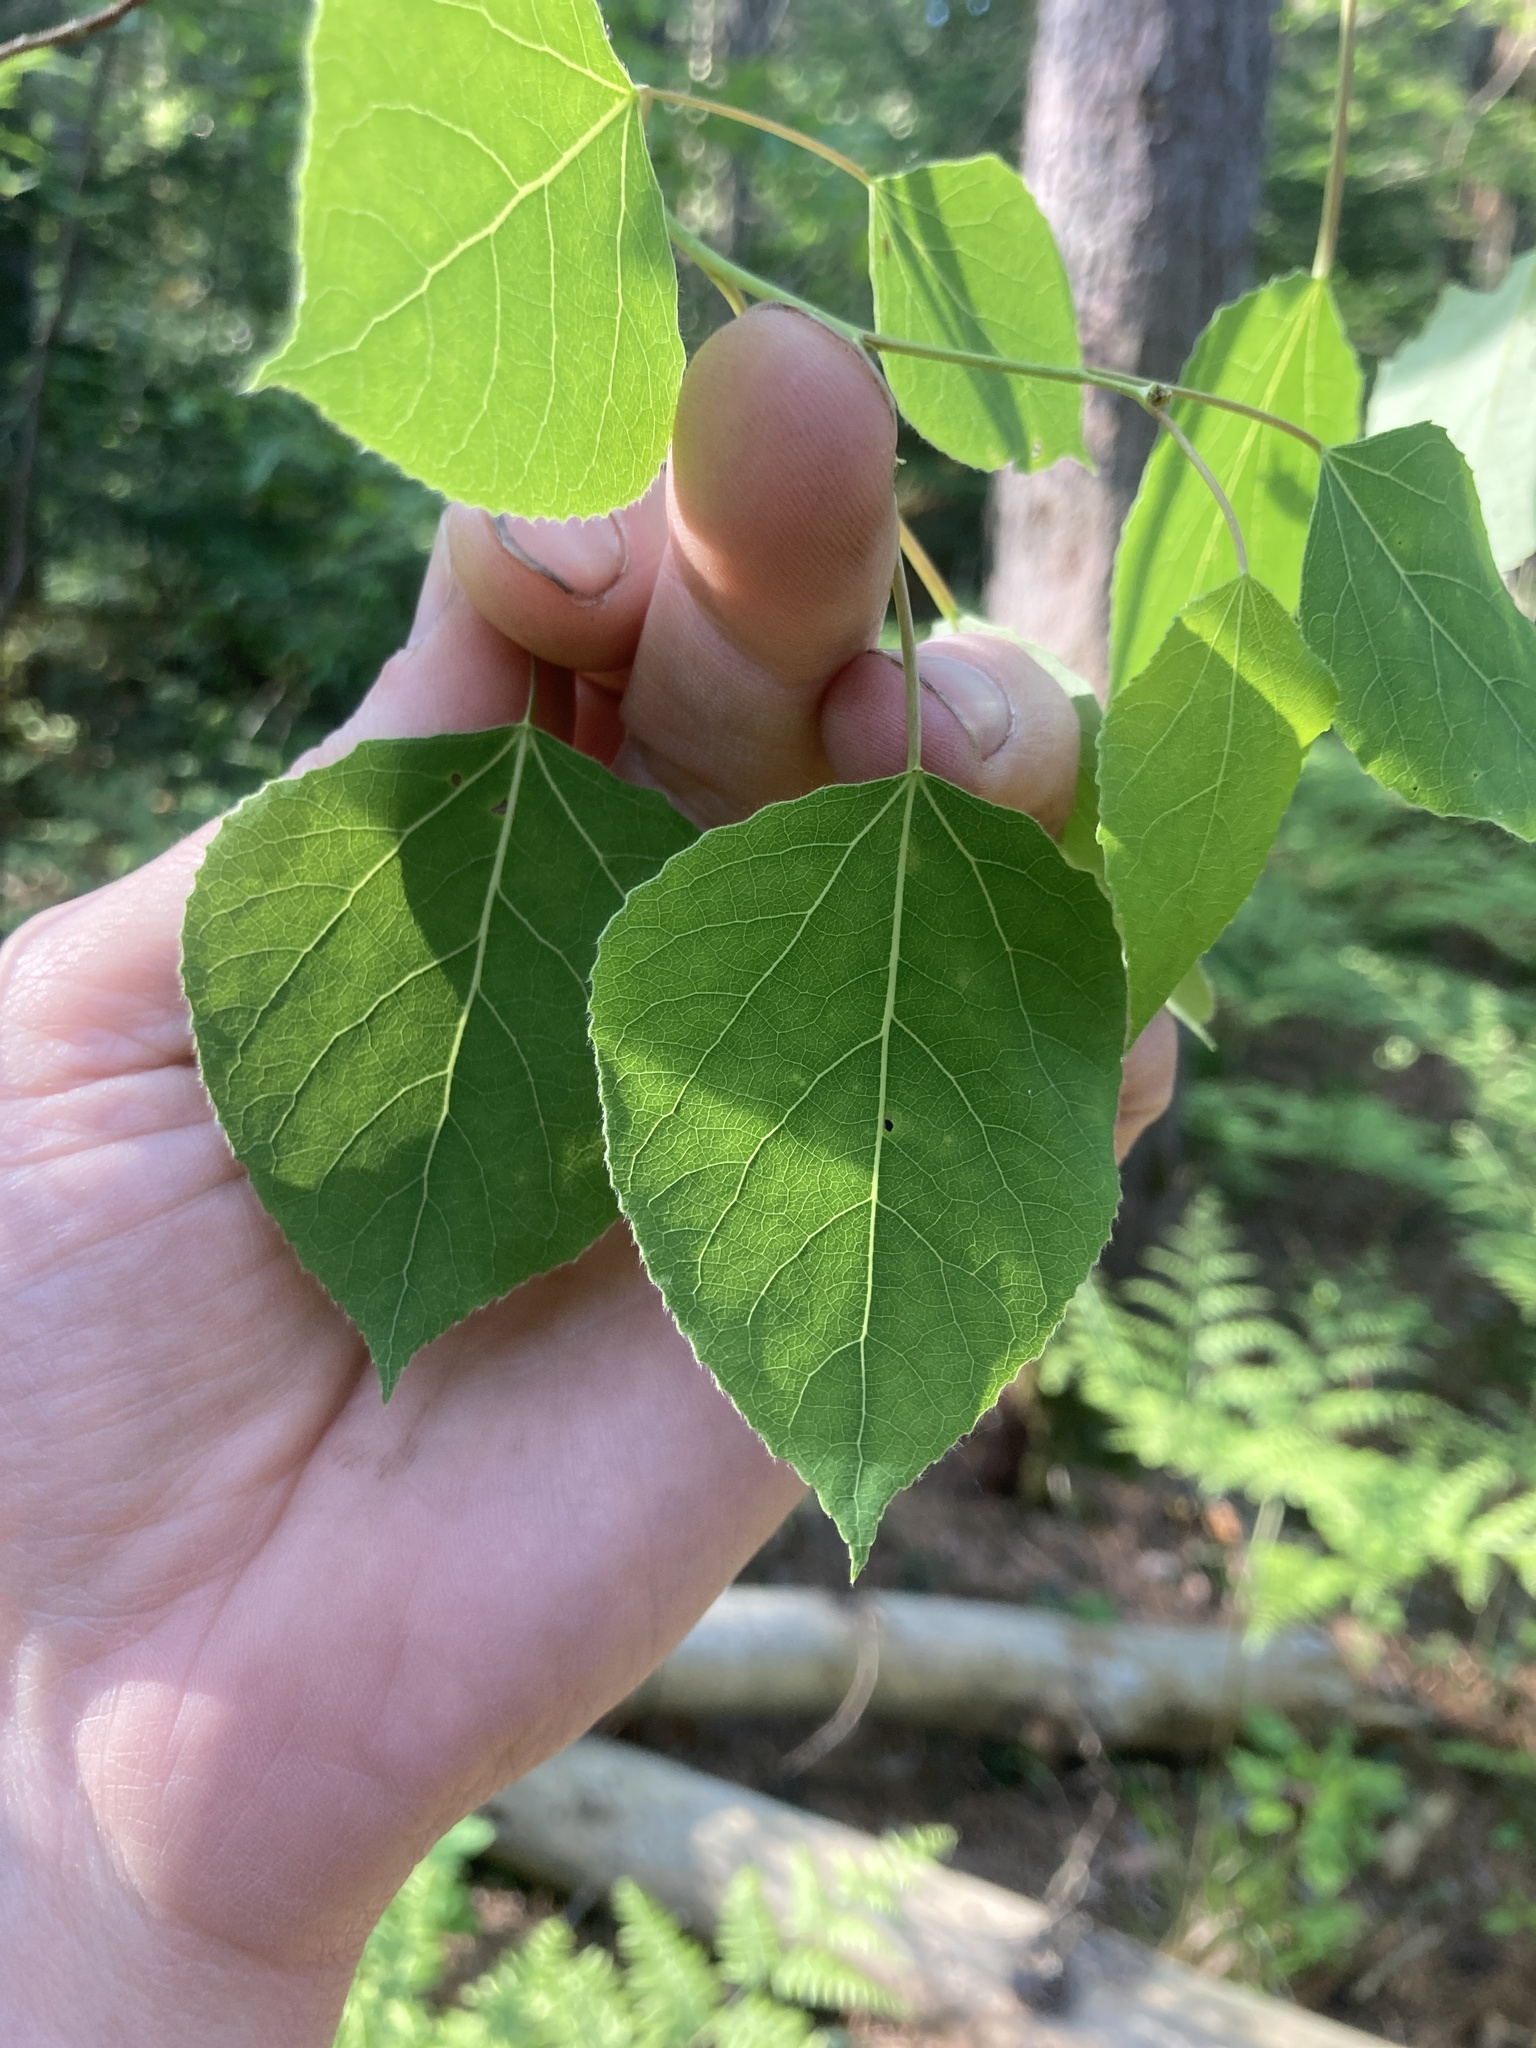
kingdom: Plantae
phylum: Tracheophyta
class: Magnoliopsida
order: Malpighiales
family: Salicaceae
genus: Populus
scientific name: Populus tremuloides
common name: Quaking aspen
